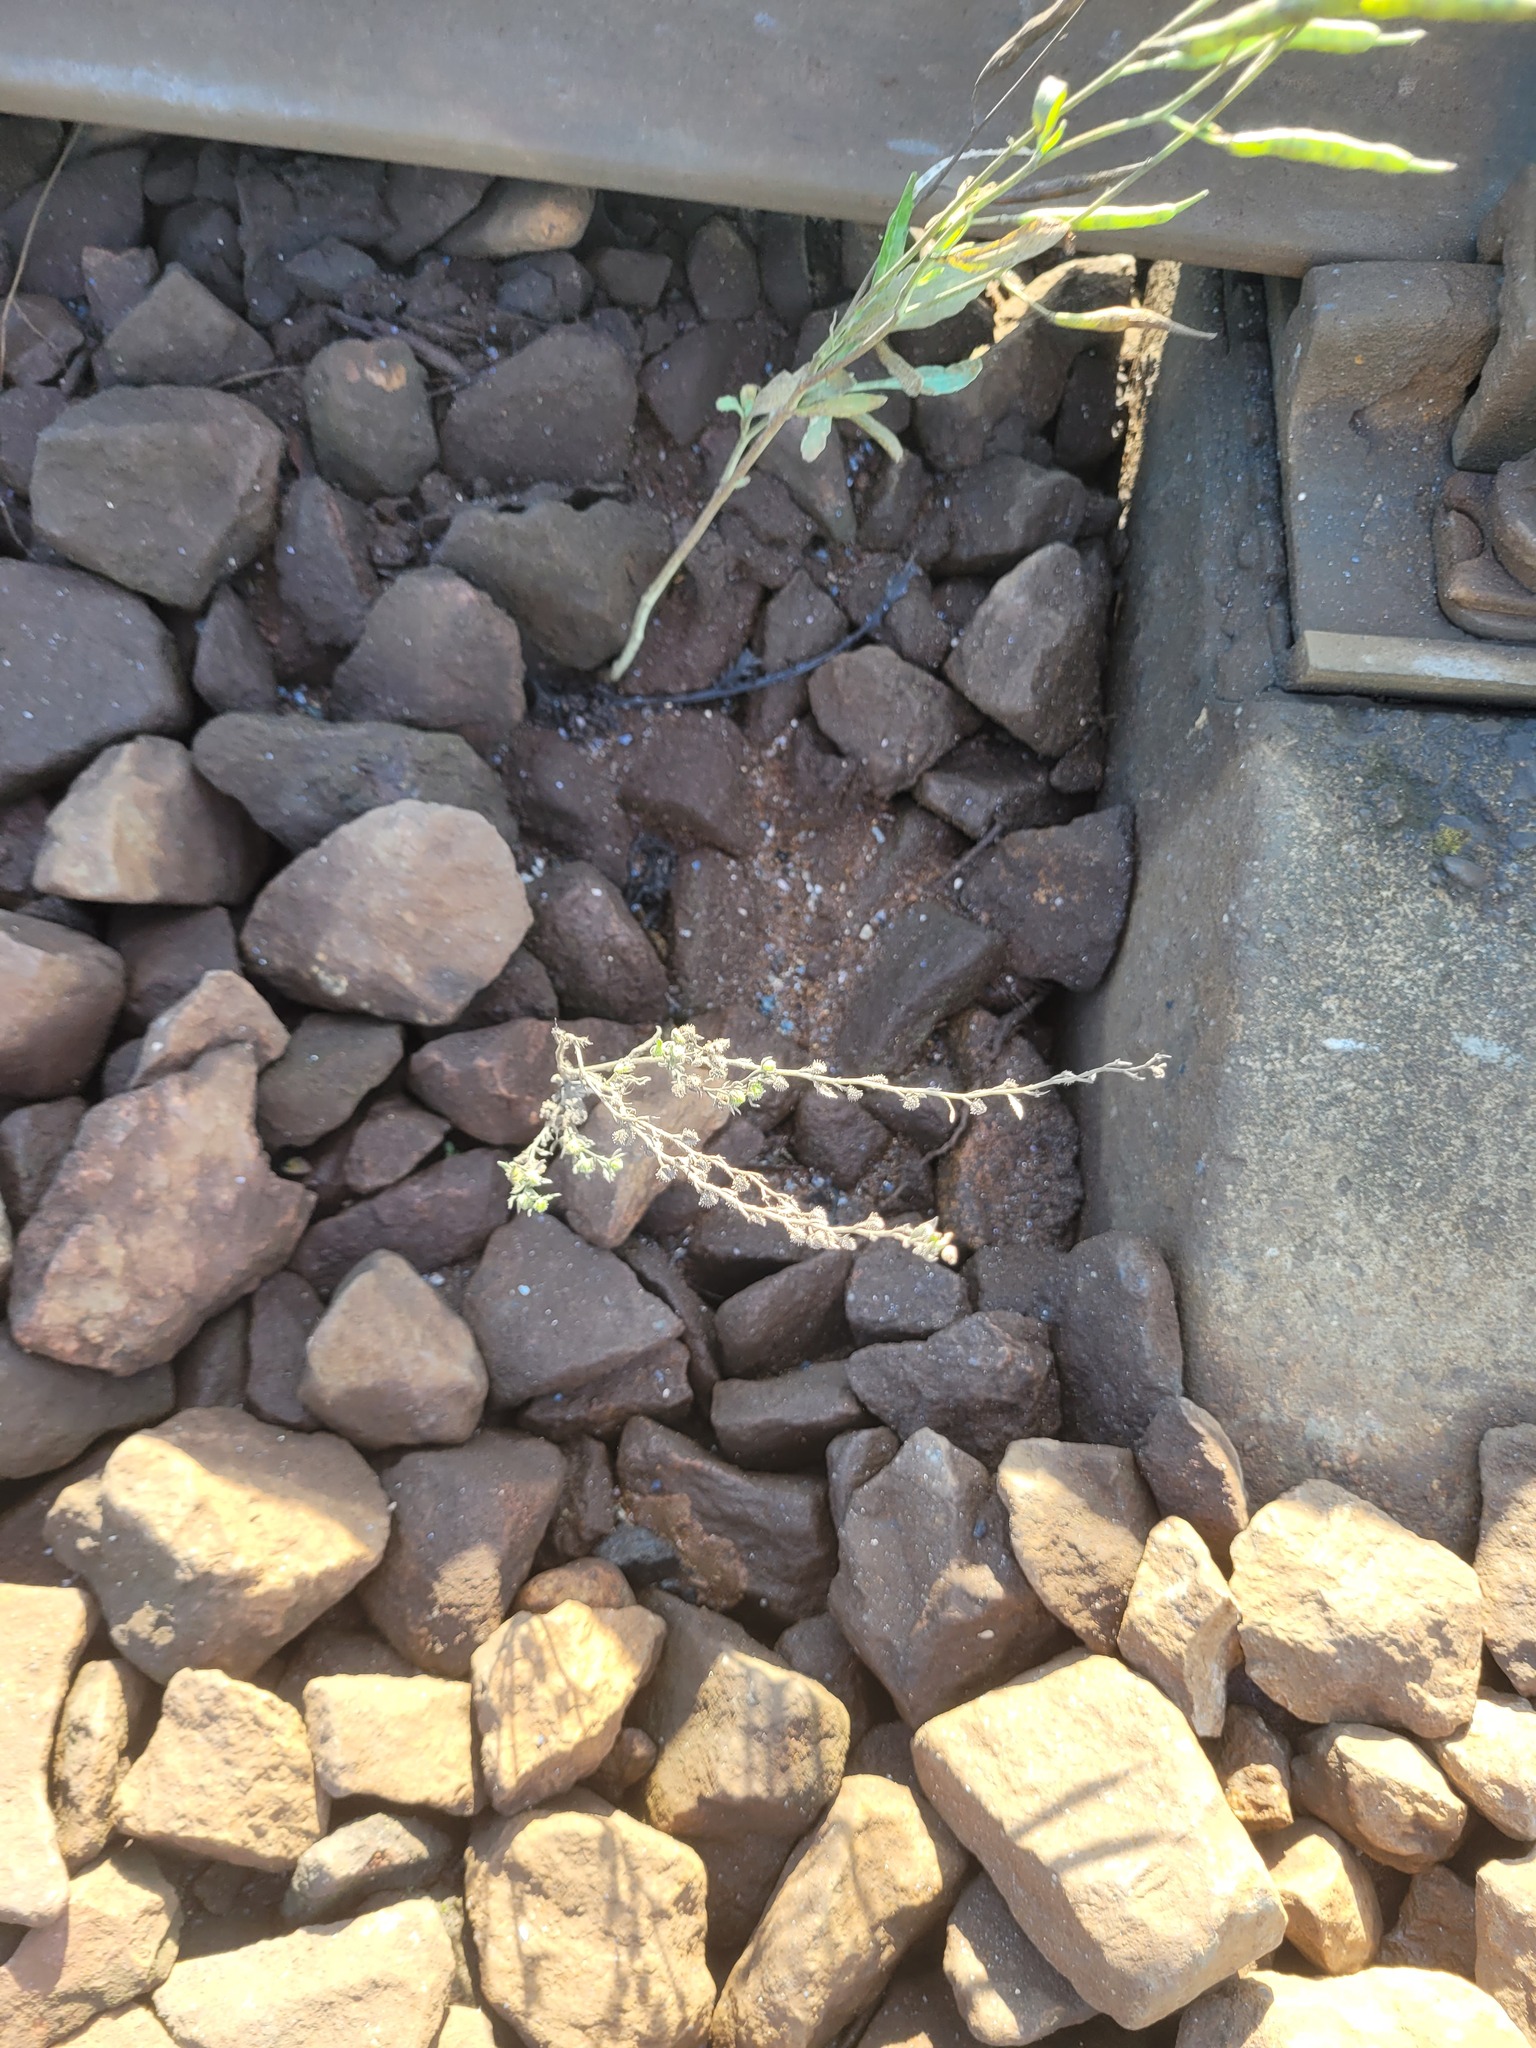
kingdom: Plantae
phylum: Tracheophyta
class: Magnoliopsida
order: Boraginales
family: Boraginaceae
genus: Lappula
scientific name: Lappula squarrosa
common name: European stickseed
